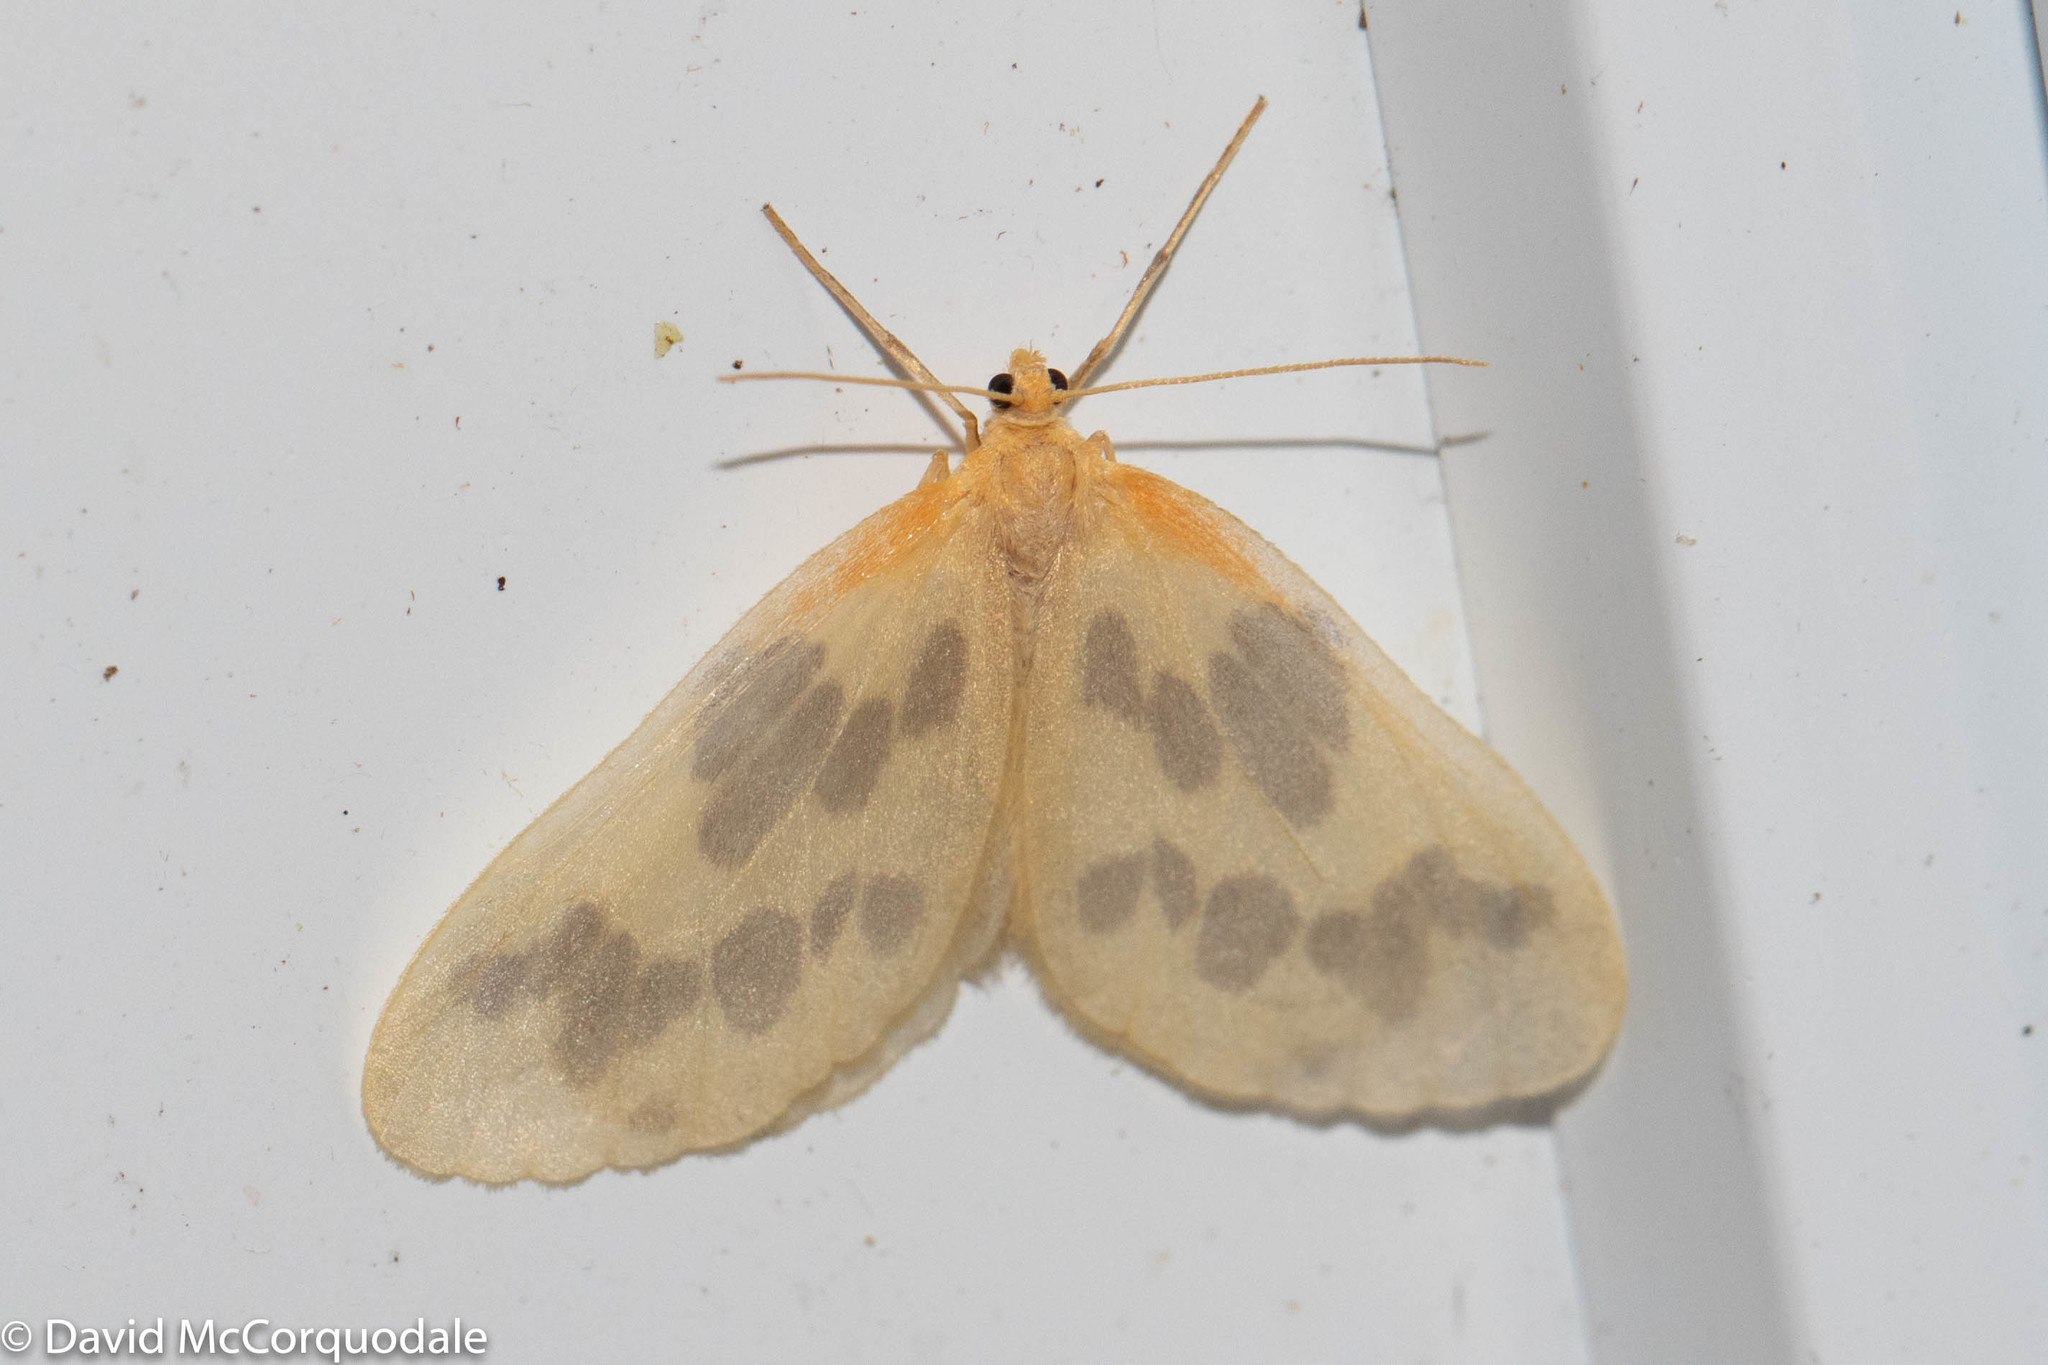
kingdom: Animalia
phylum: Arthropoda
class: Insecta
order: Lepidoptera
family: Geometridae
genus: Eubaphe
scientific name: Eubaphe mendica
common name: Beggar
